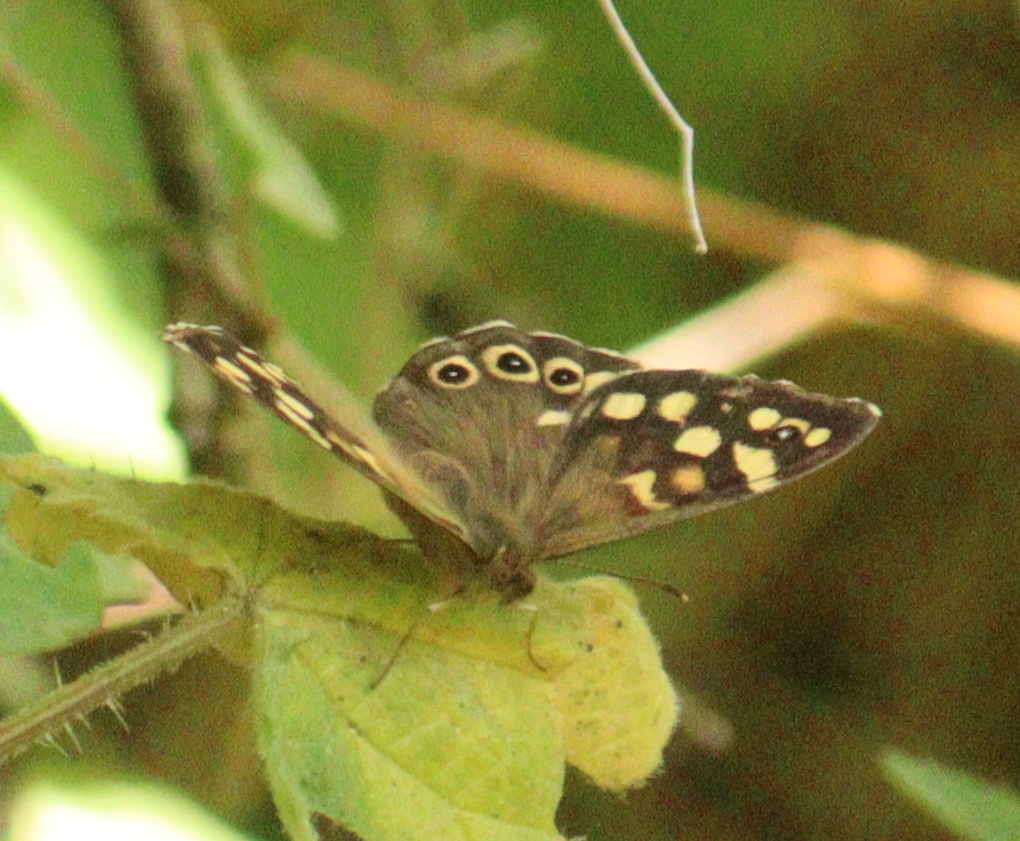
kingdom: Animalia
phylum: Arthropoda
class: Insecta
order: Lepidoptera
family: Nymphalidae
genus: Pararge
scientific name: Pararge aegeria
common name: Speckled wood
